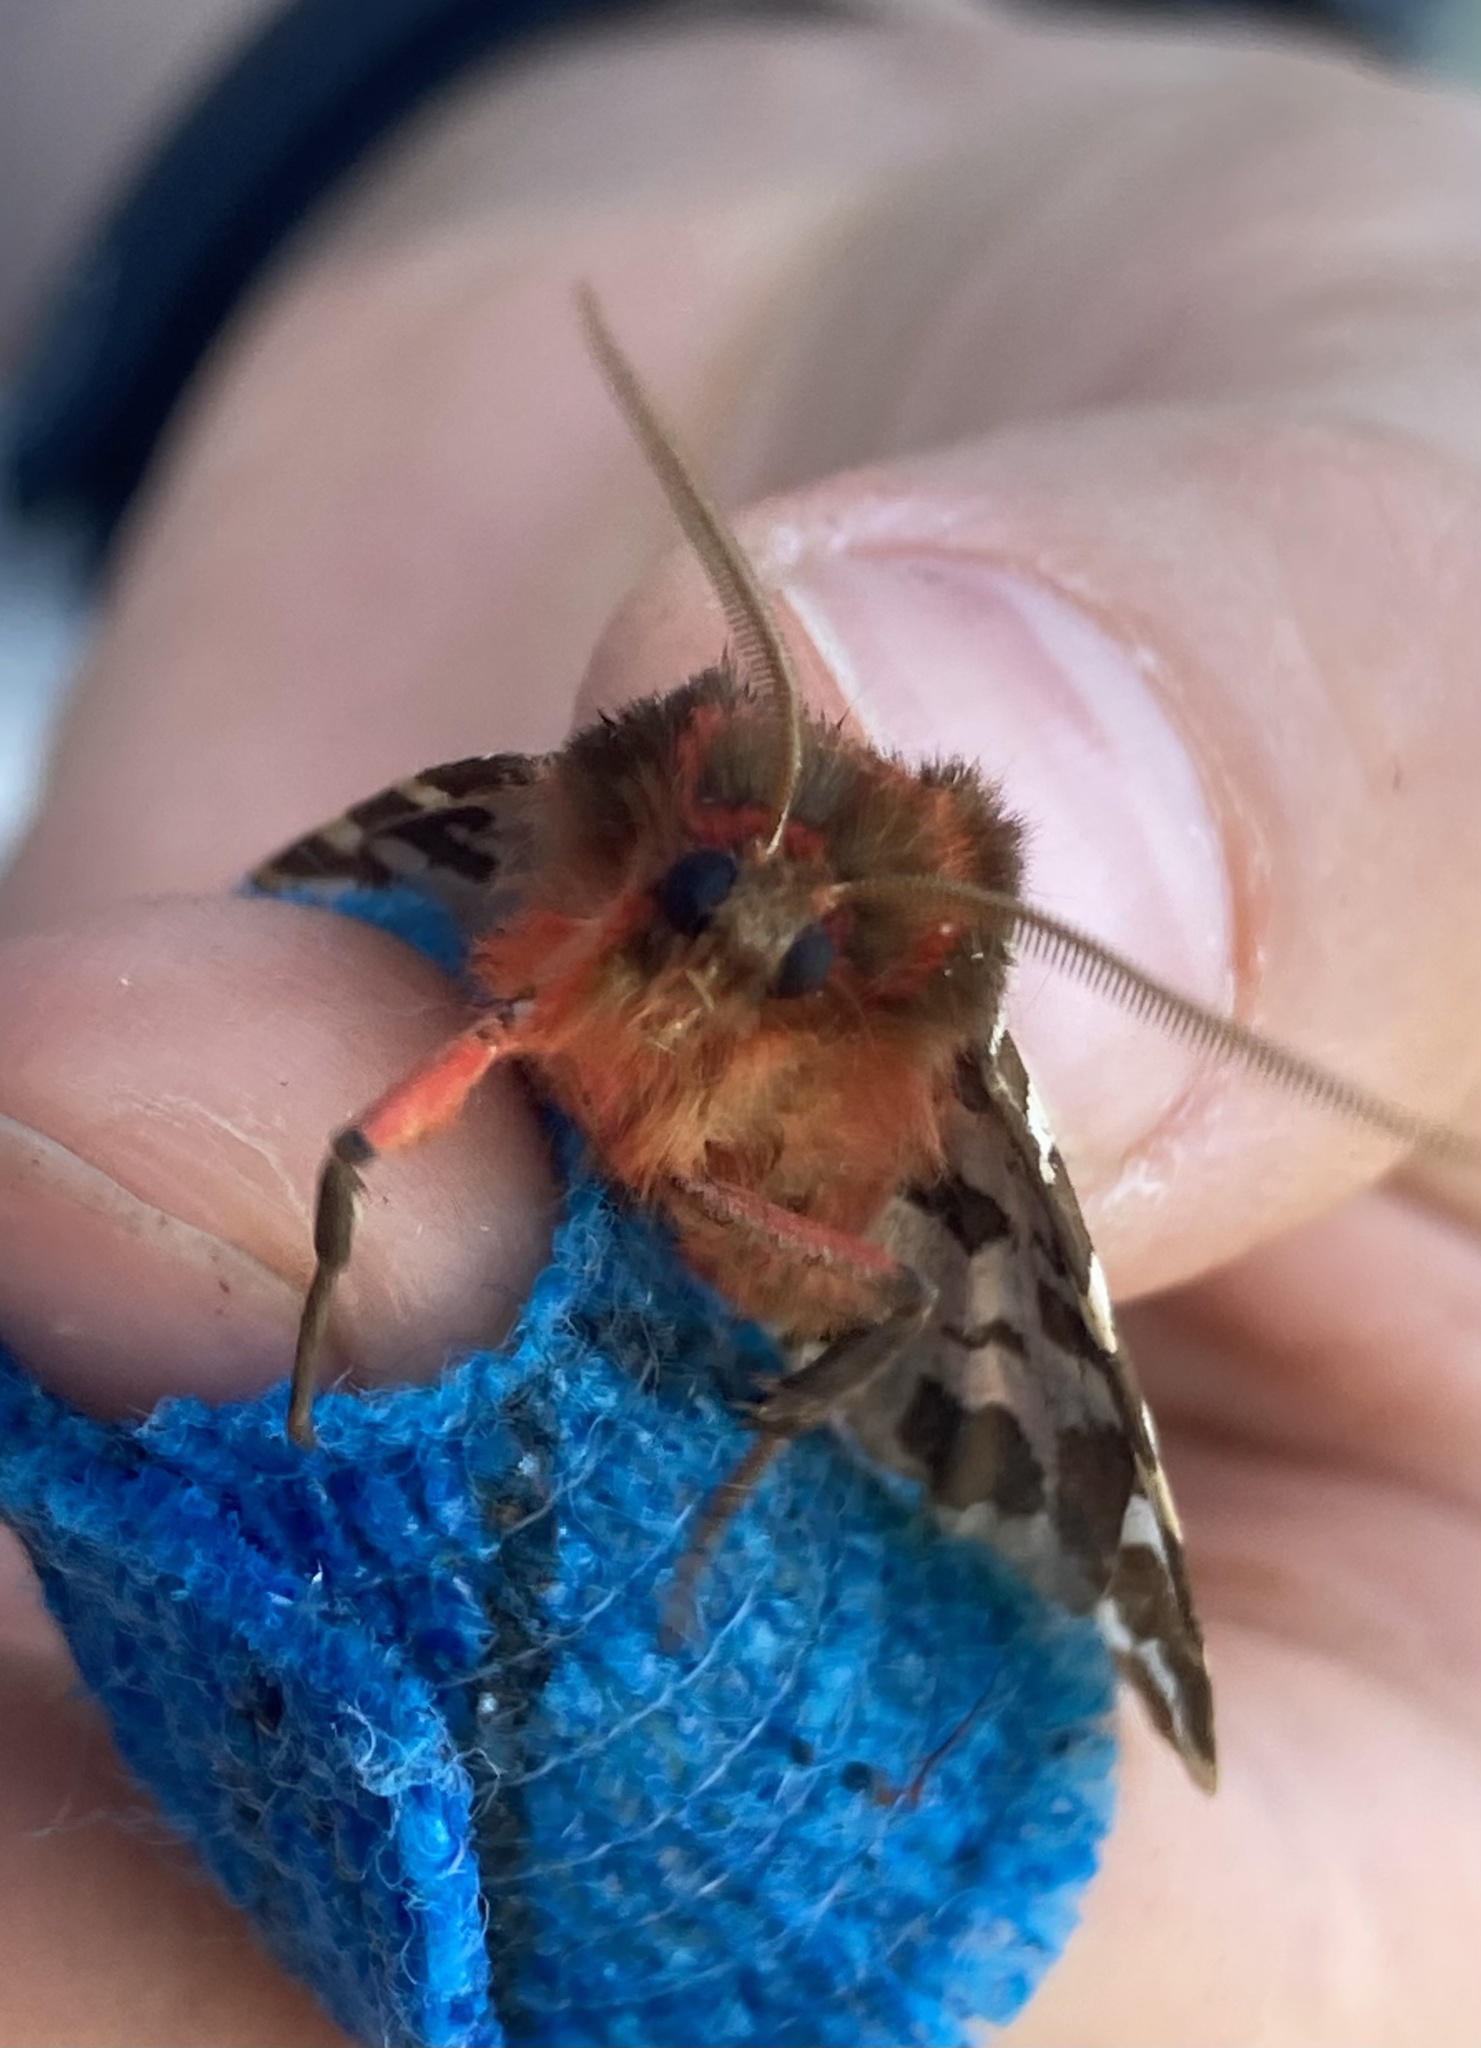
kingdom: Animalia
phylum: Arthropoda
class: Insecta
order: Lepidoptera
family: Erebidae
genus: Arctia
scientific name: Arctia caja
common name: Garden tiger
